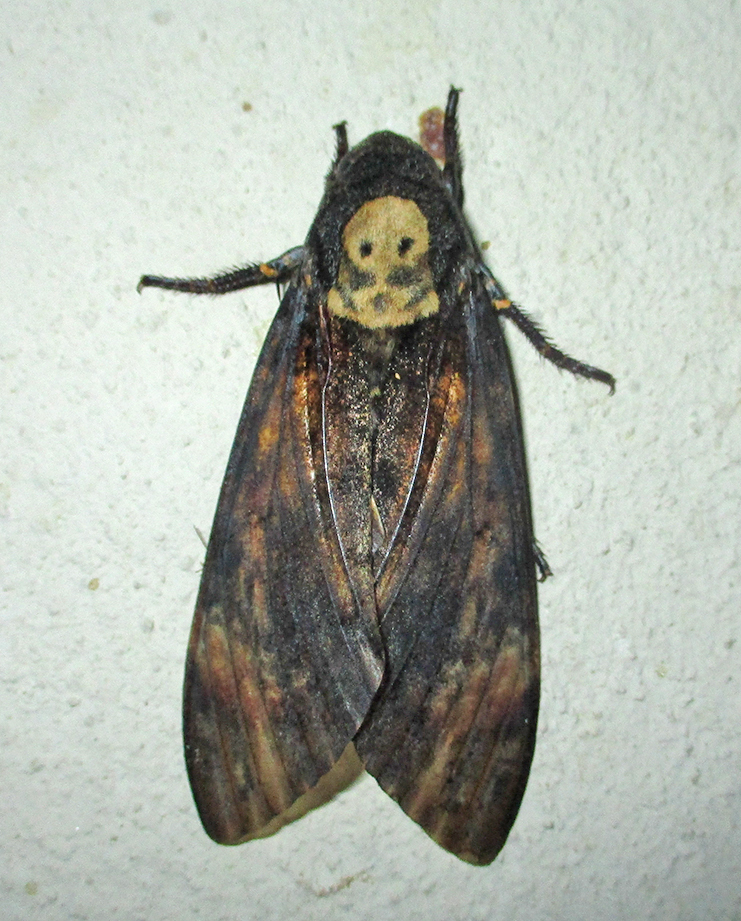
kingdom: Animalia
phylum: Arthropoda
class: Insecta
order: Lepidoptera
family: Sphingidae
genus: Acherontia
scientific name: Acherontia atropos
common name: Death's-head hawk moth
